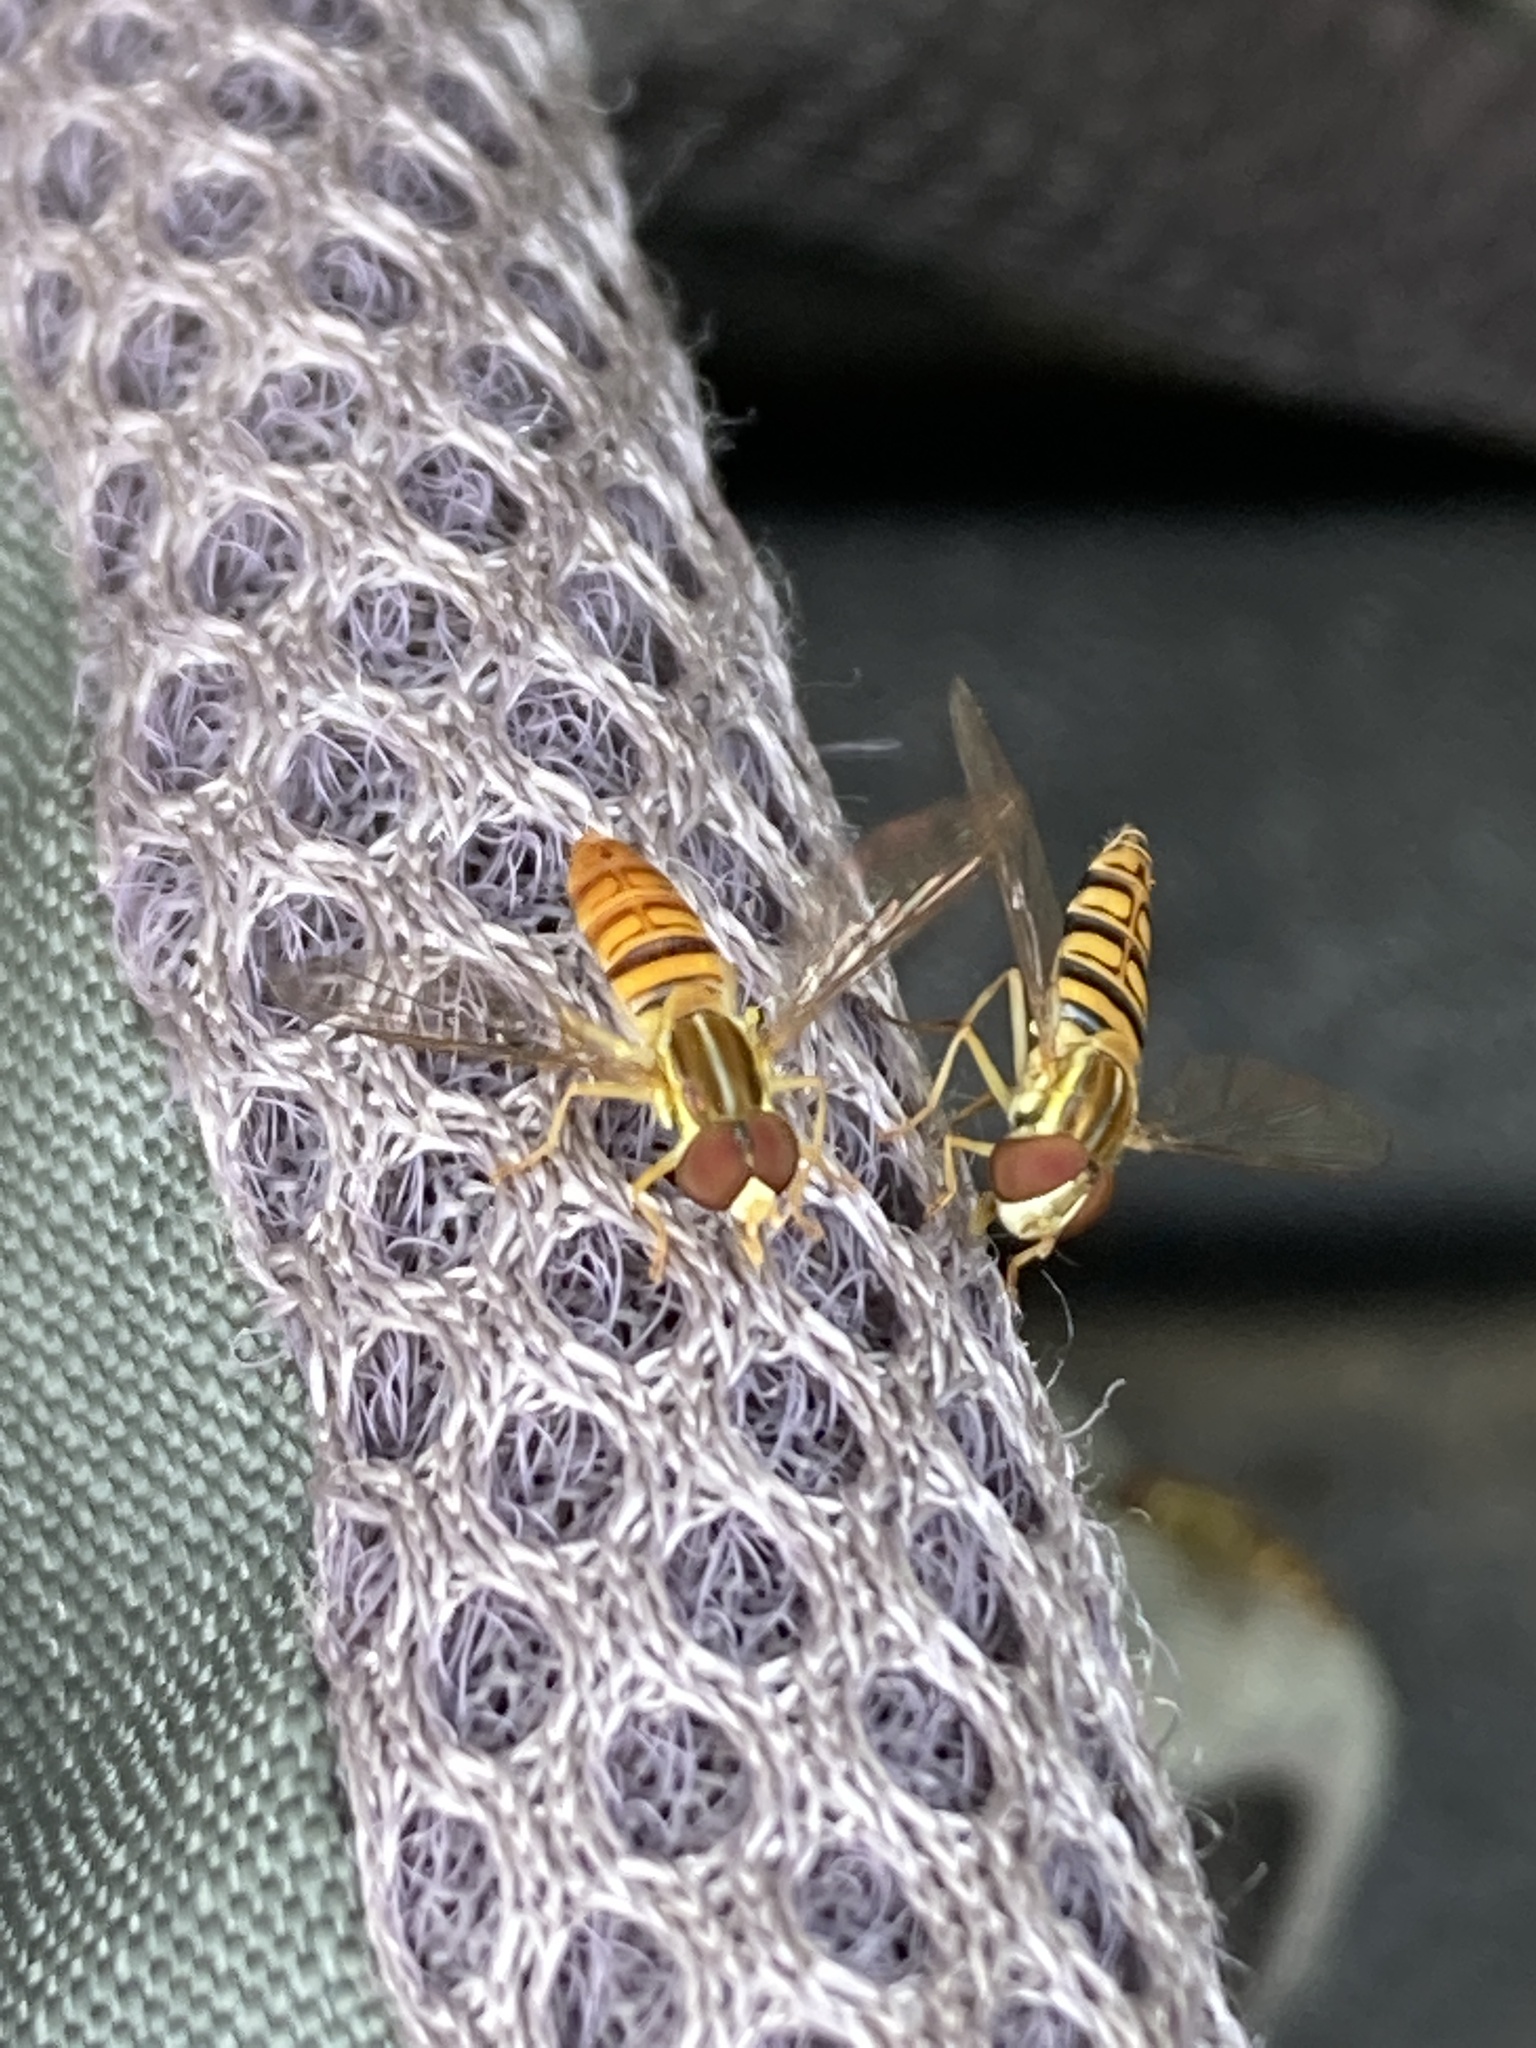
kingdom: Animalia
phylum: Arthropoda
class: Insecta
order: Diptera
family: Syrphidae
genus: Toxomerus
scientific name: Toxomerus politus
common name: Maize calligrapher
